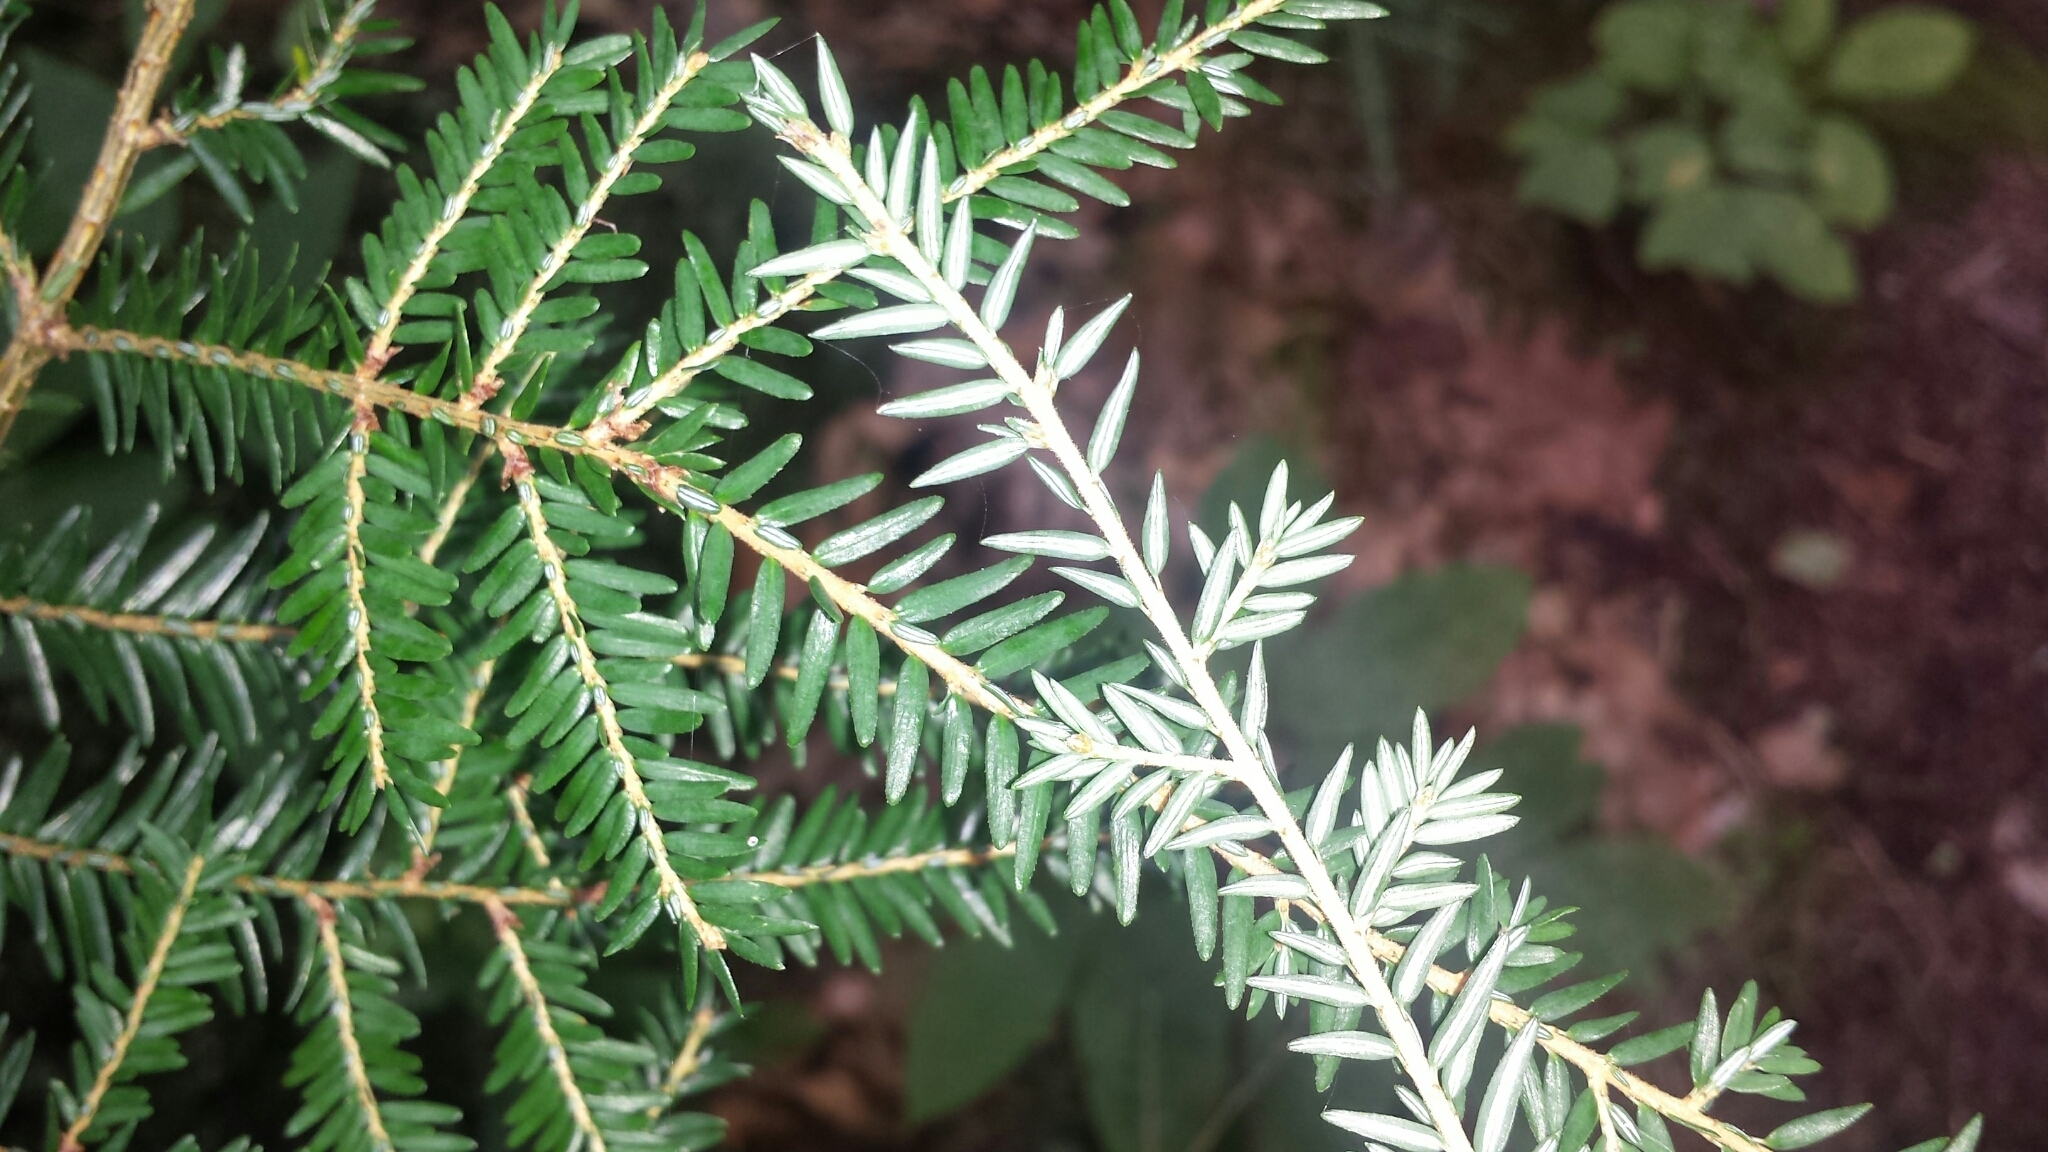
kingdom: Plantae
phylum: Tracheophyta
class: Pinopsida
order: Pinales
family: Pinaceae
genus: Tsuga
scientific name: Tsuga canadensis
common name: Eastern hemlock
